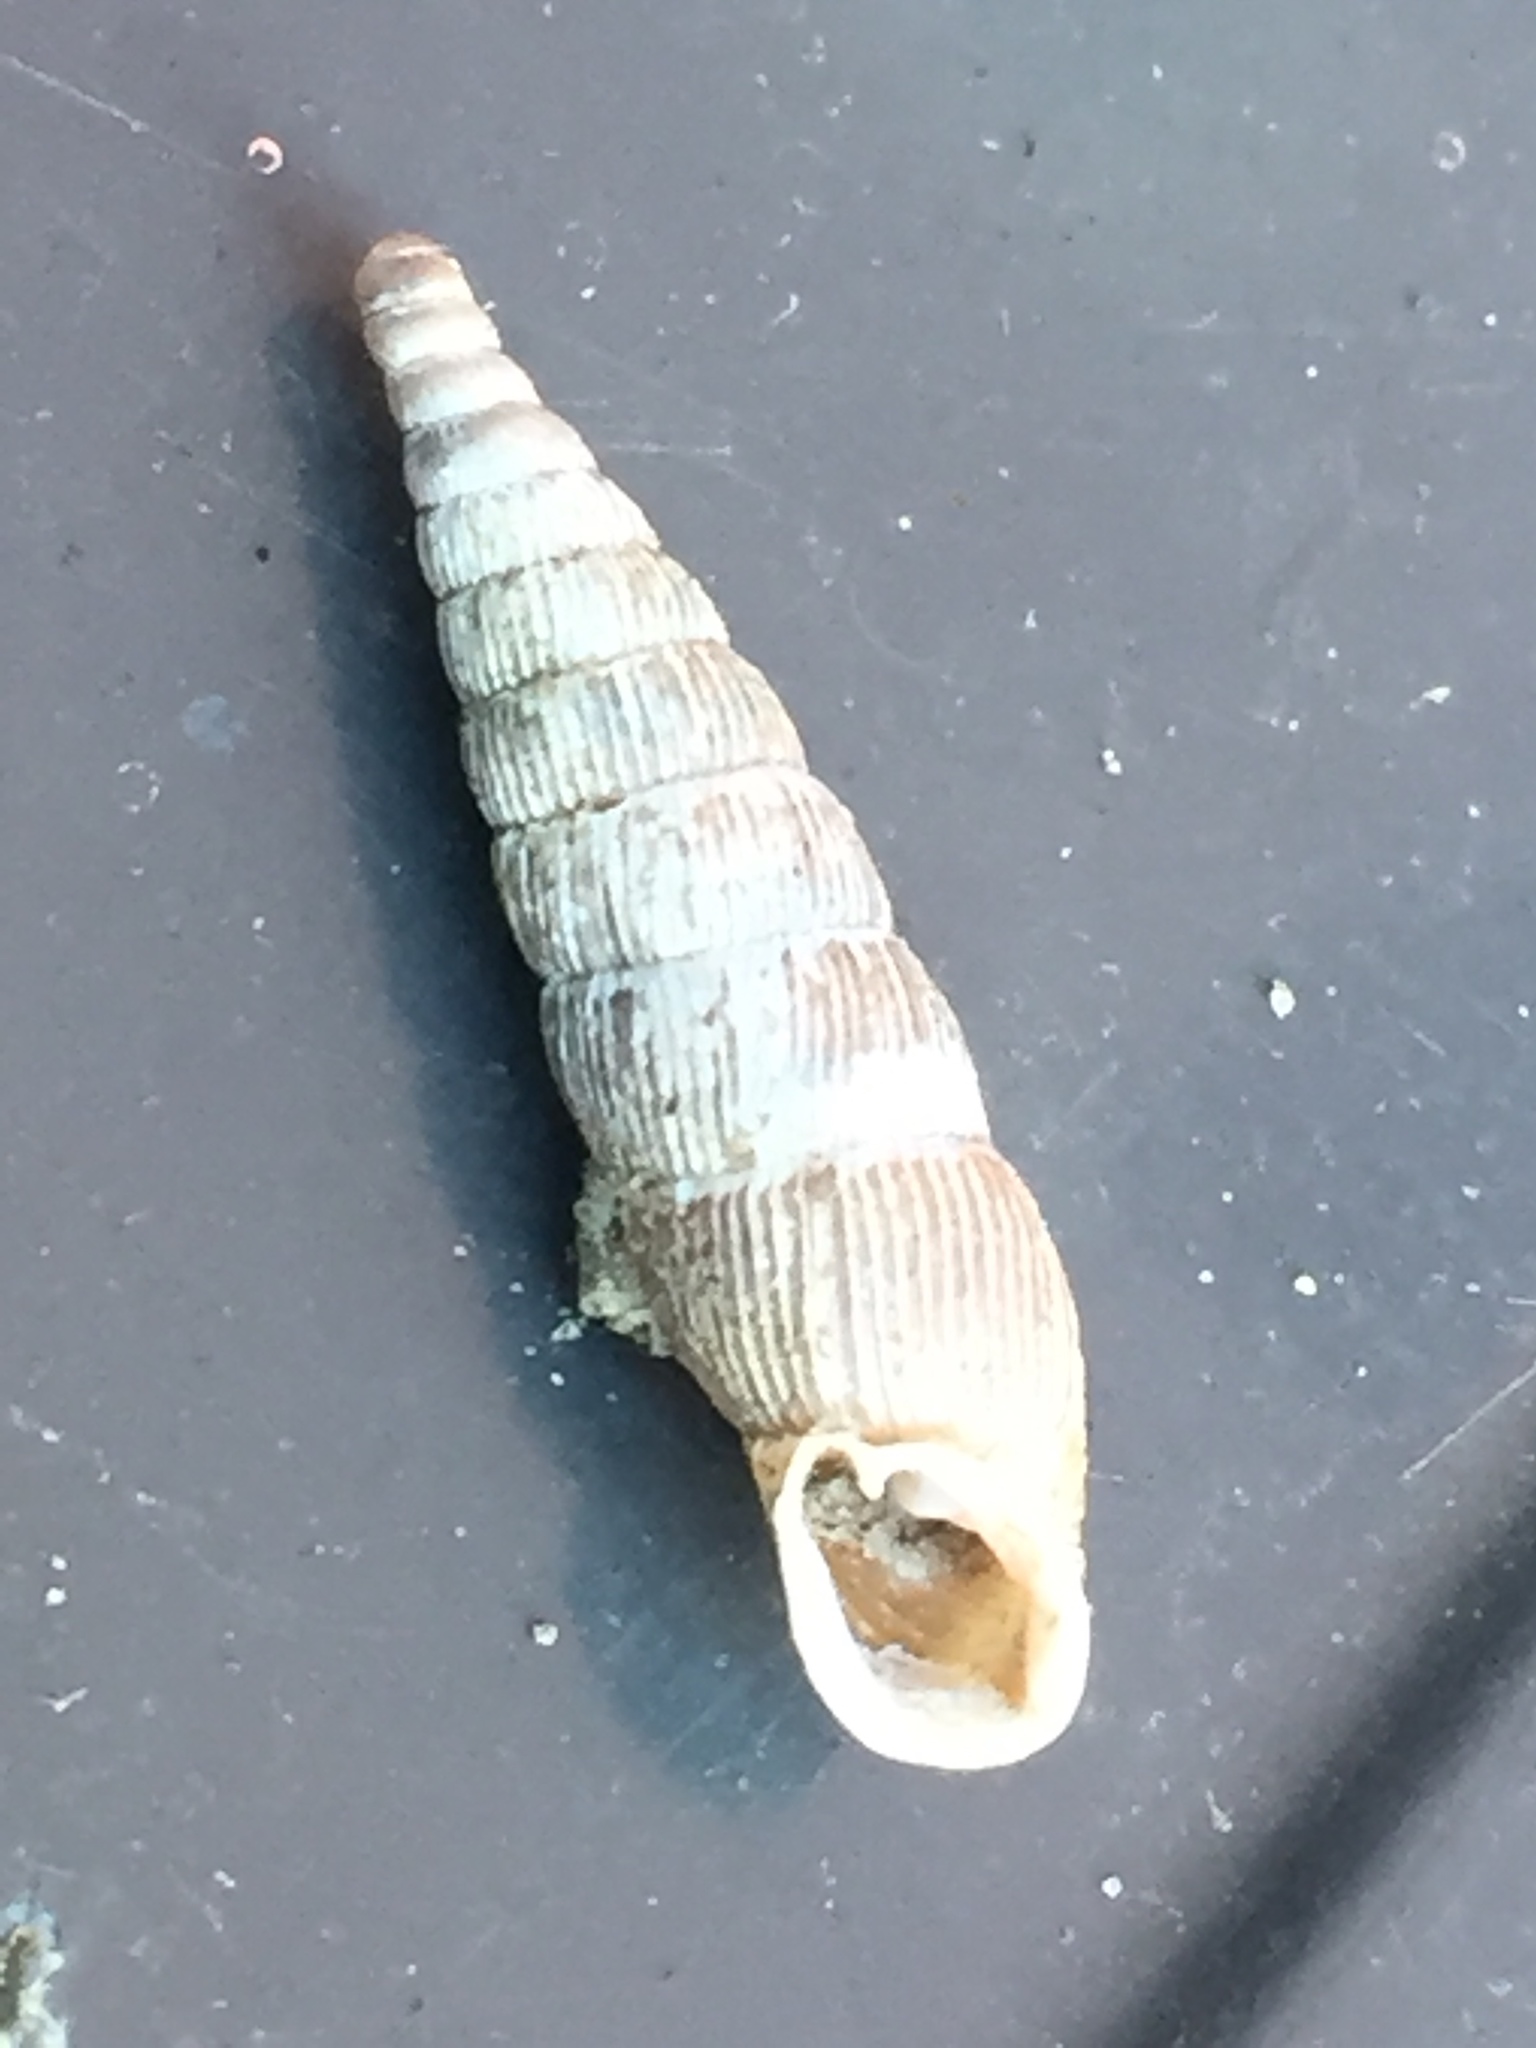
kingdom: Animalia
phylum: Mollusca
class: Gastropoda
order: Stylommatophora
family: Clausiliidae
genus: Alinda
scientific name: Alinda biplicata
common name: Thames door snail
